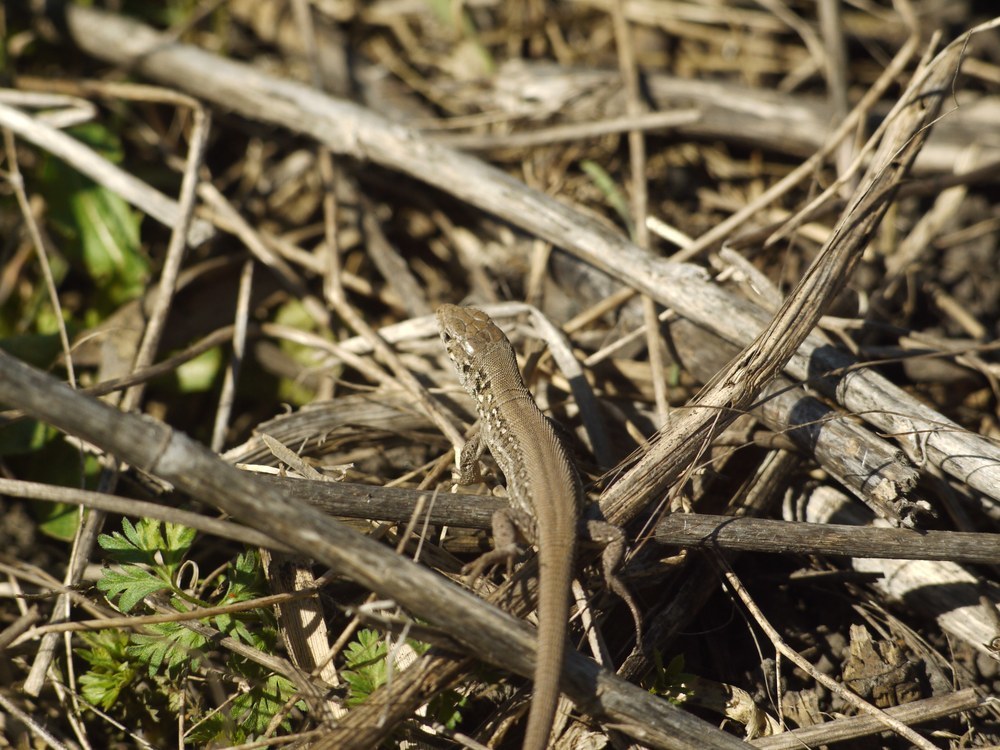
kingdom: Animalia
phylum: Chordata
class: Squamata
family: Lacertidae
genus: Lacerta
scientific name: Lacerta agilis
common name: Sand lizard
